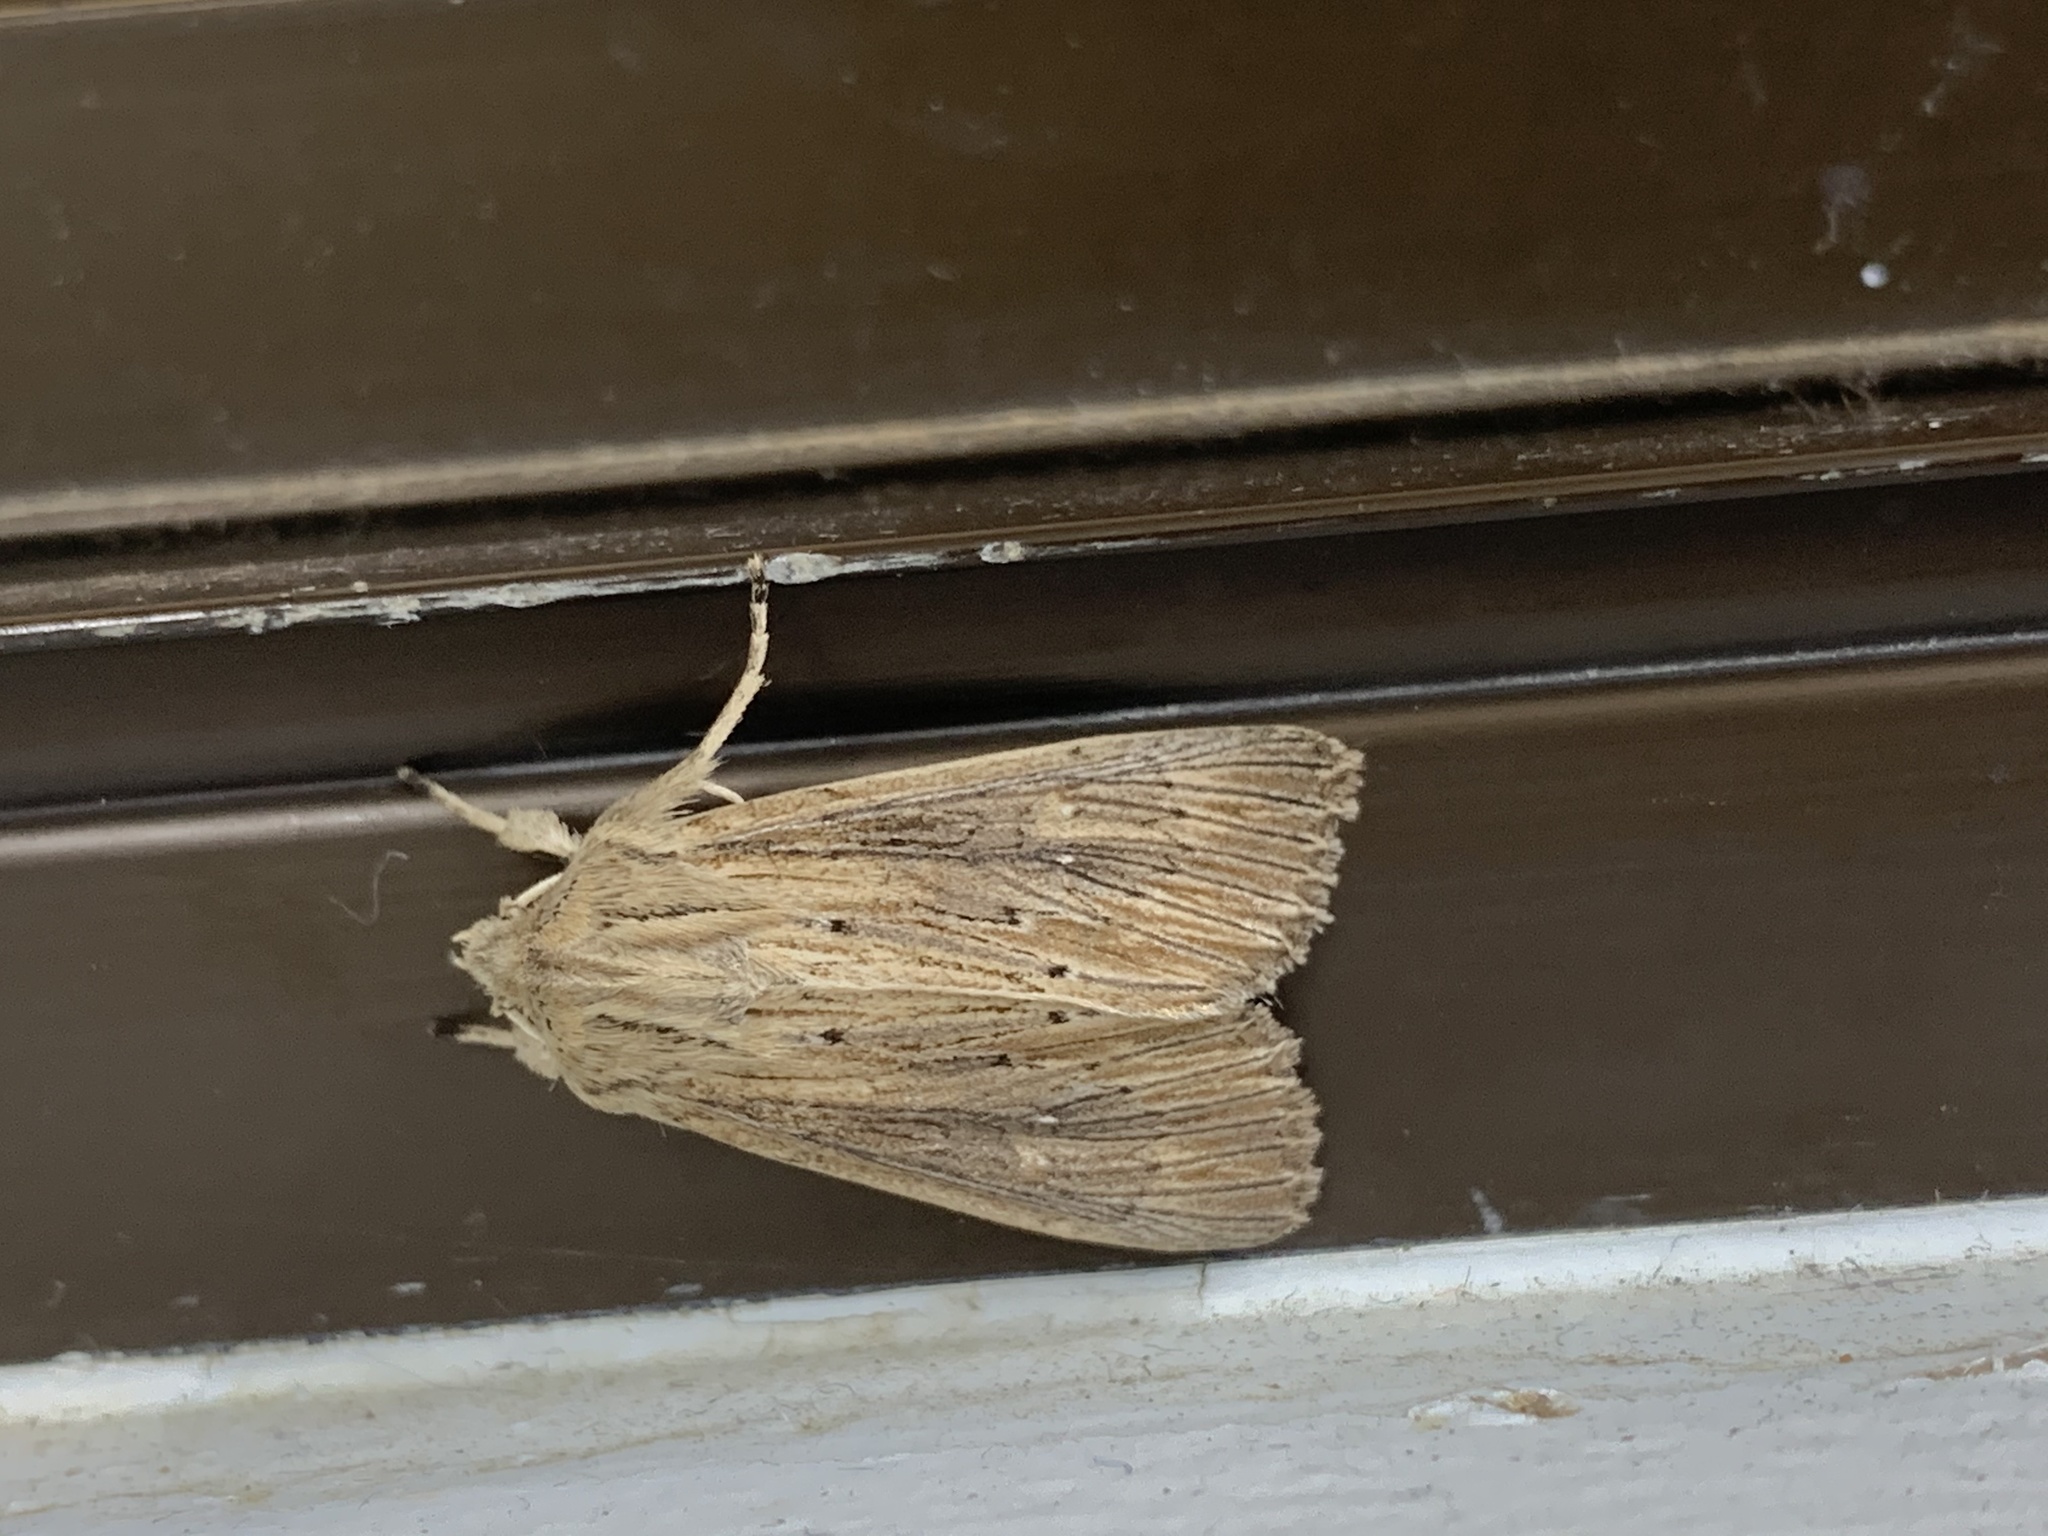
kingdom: Animalia
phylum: Arthropoda
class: Insecta
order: Lepidoptera
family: Noctuidae
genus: Ichneutica
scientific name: Ichneutica arotis
